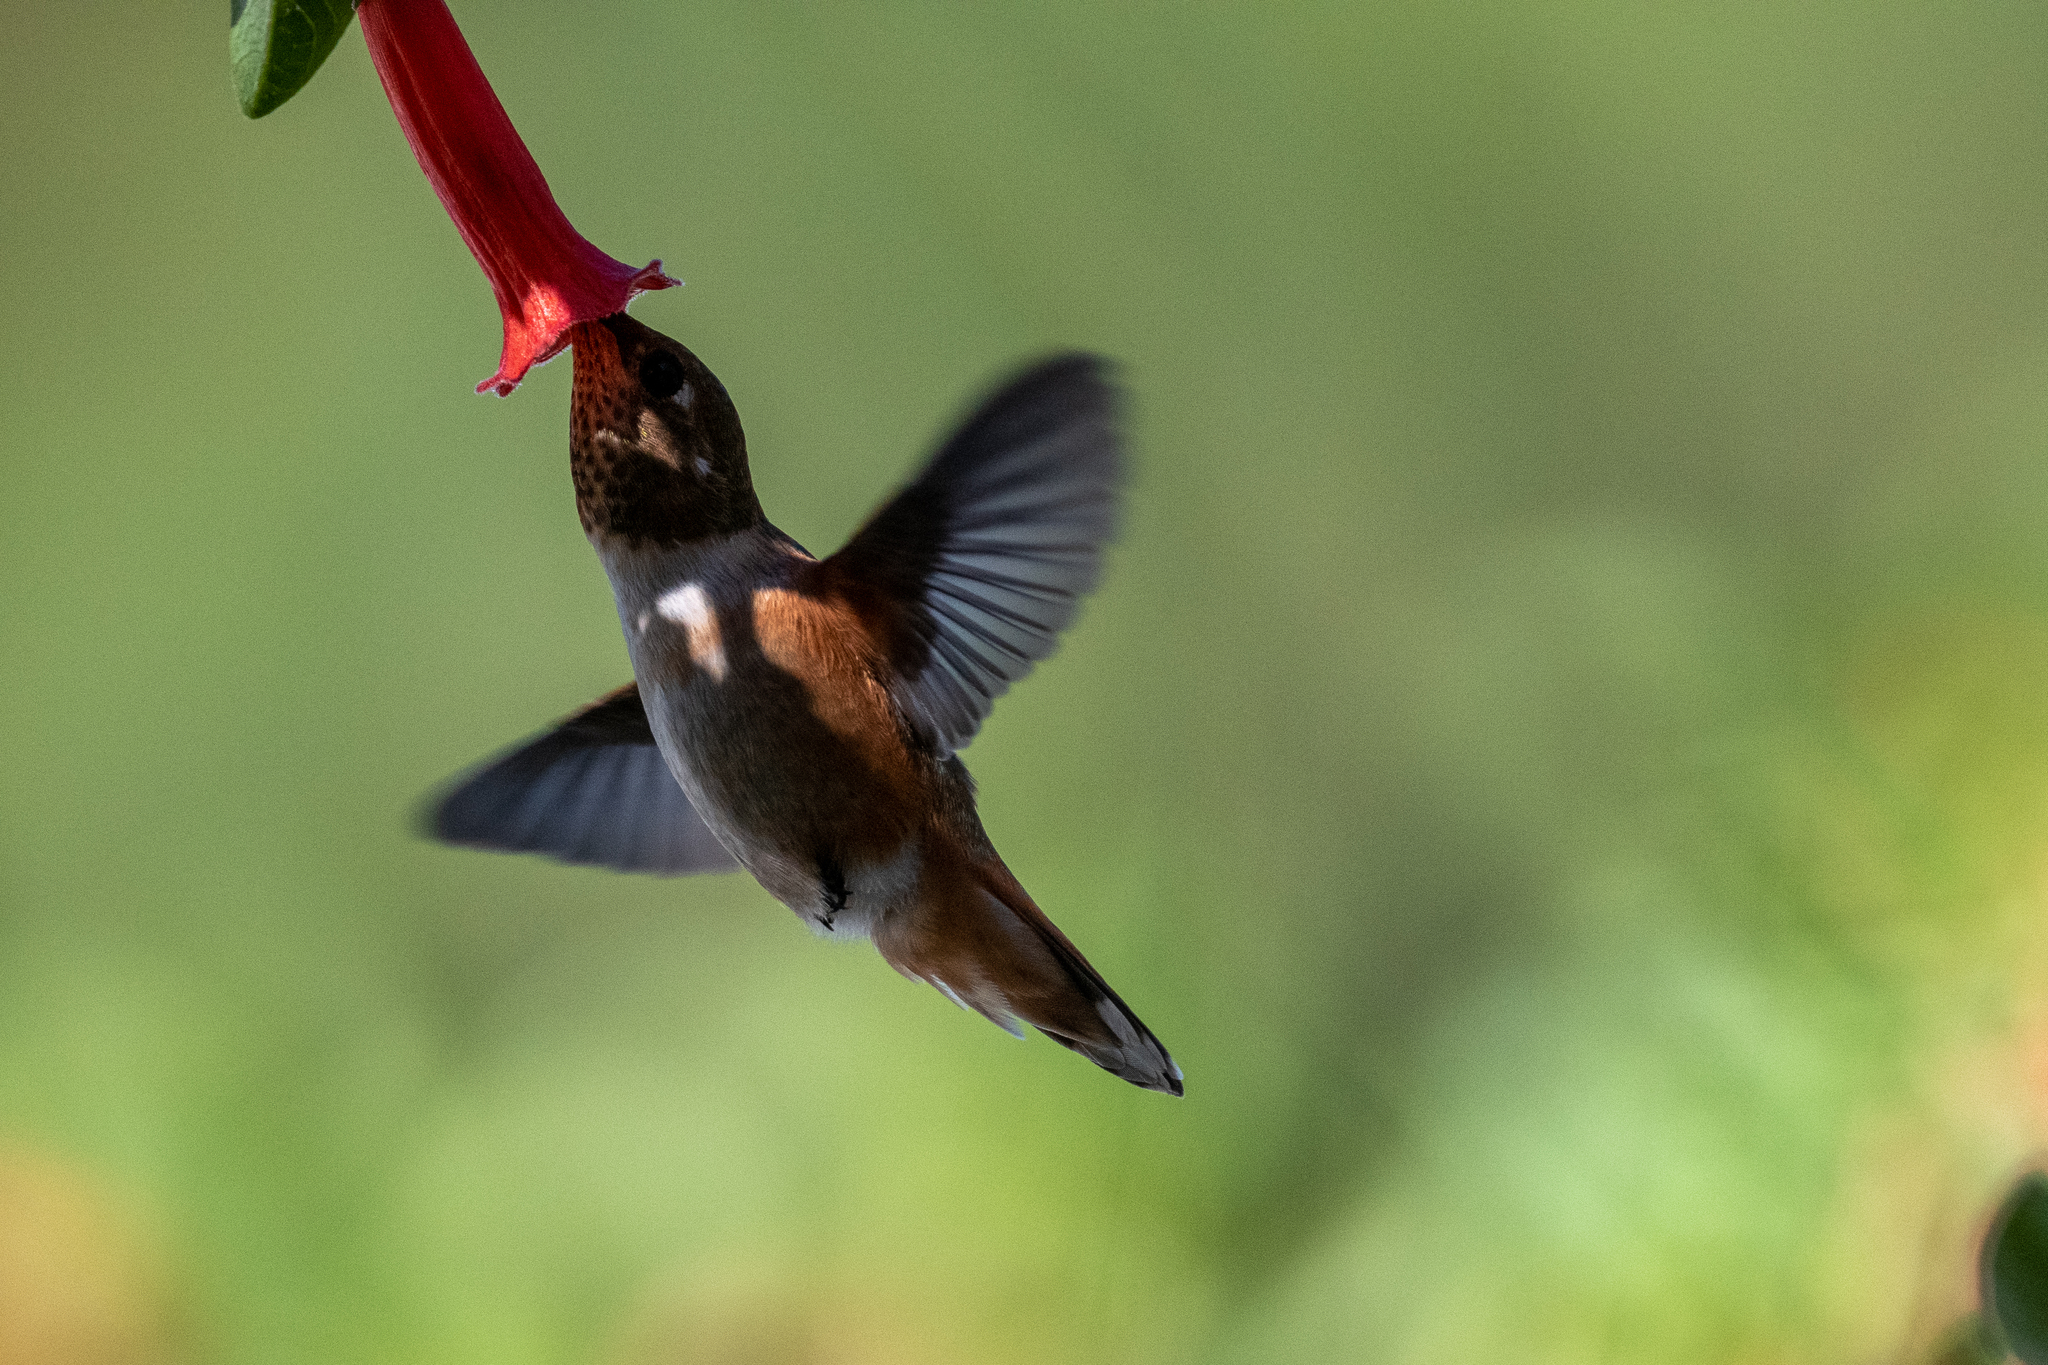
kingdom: Animalia
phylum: Chordata
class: Aves
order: Apodiformes
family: Trochilidae
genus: Selasphorus
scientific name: Selasphorus
